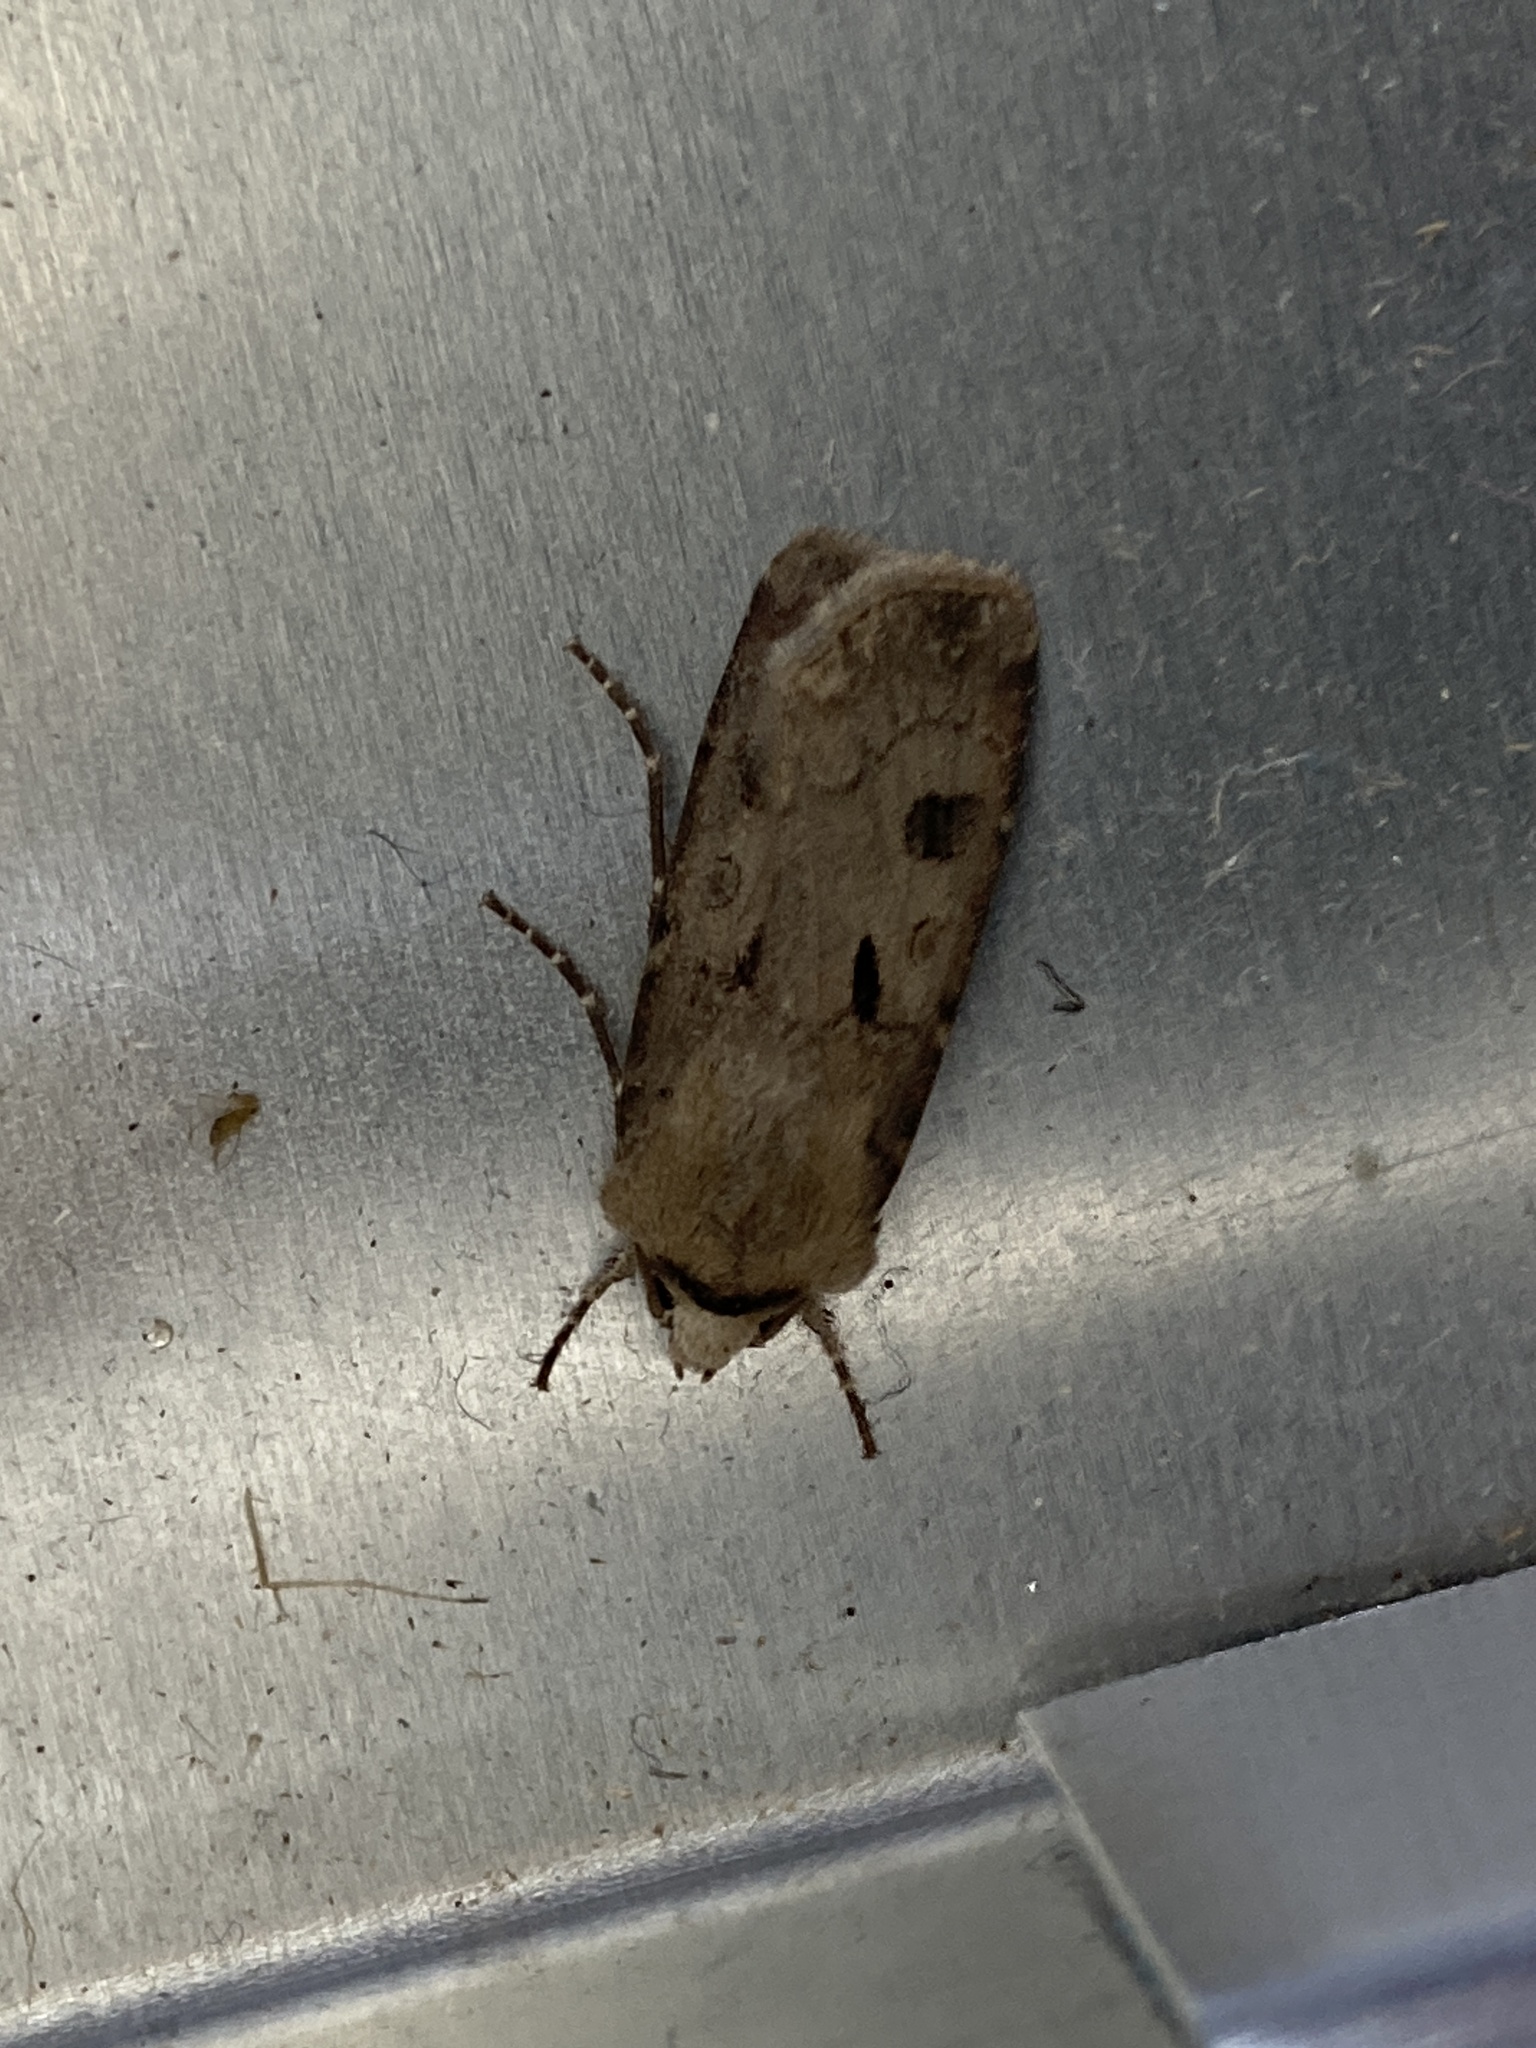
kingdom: Animalia
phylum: Arthropoda
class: Insecta
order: Lepidoptera
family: Noctuidae
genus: Agrotis
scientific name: Agrotis exclamationis
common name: Heart and dart
